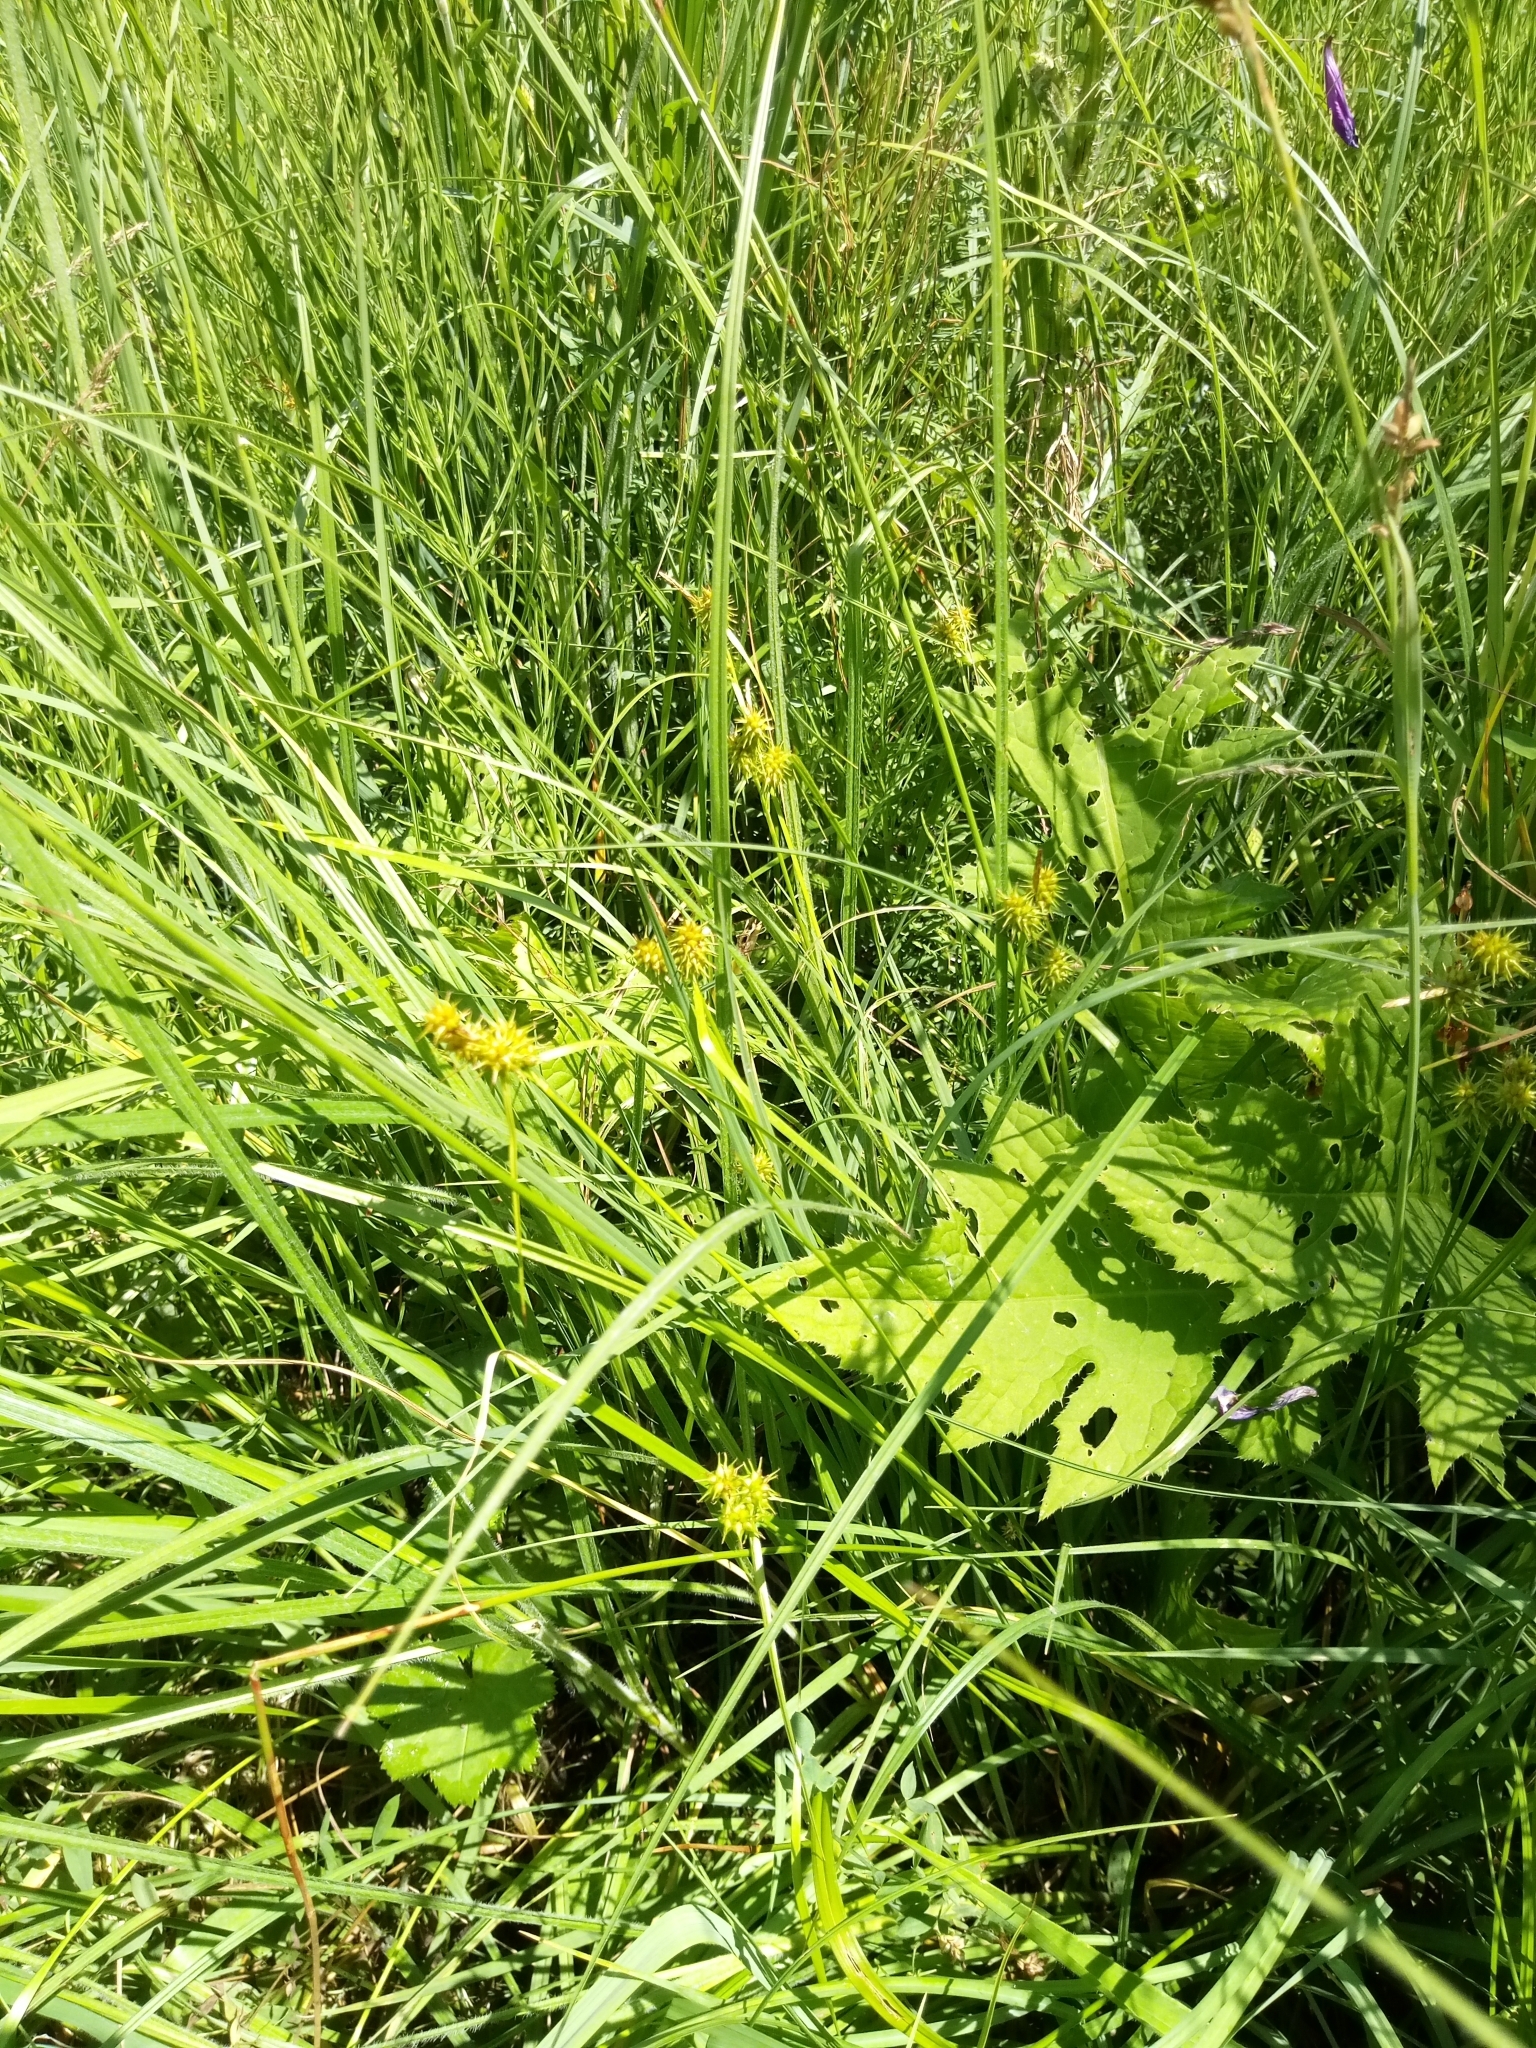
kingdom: Plantae
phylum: Tracheophyta
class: Liliopsida
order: Poales
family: Cyperaceae
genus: Carex
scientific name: Carex flava
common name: Large yellow-sedge
